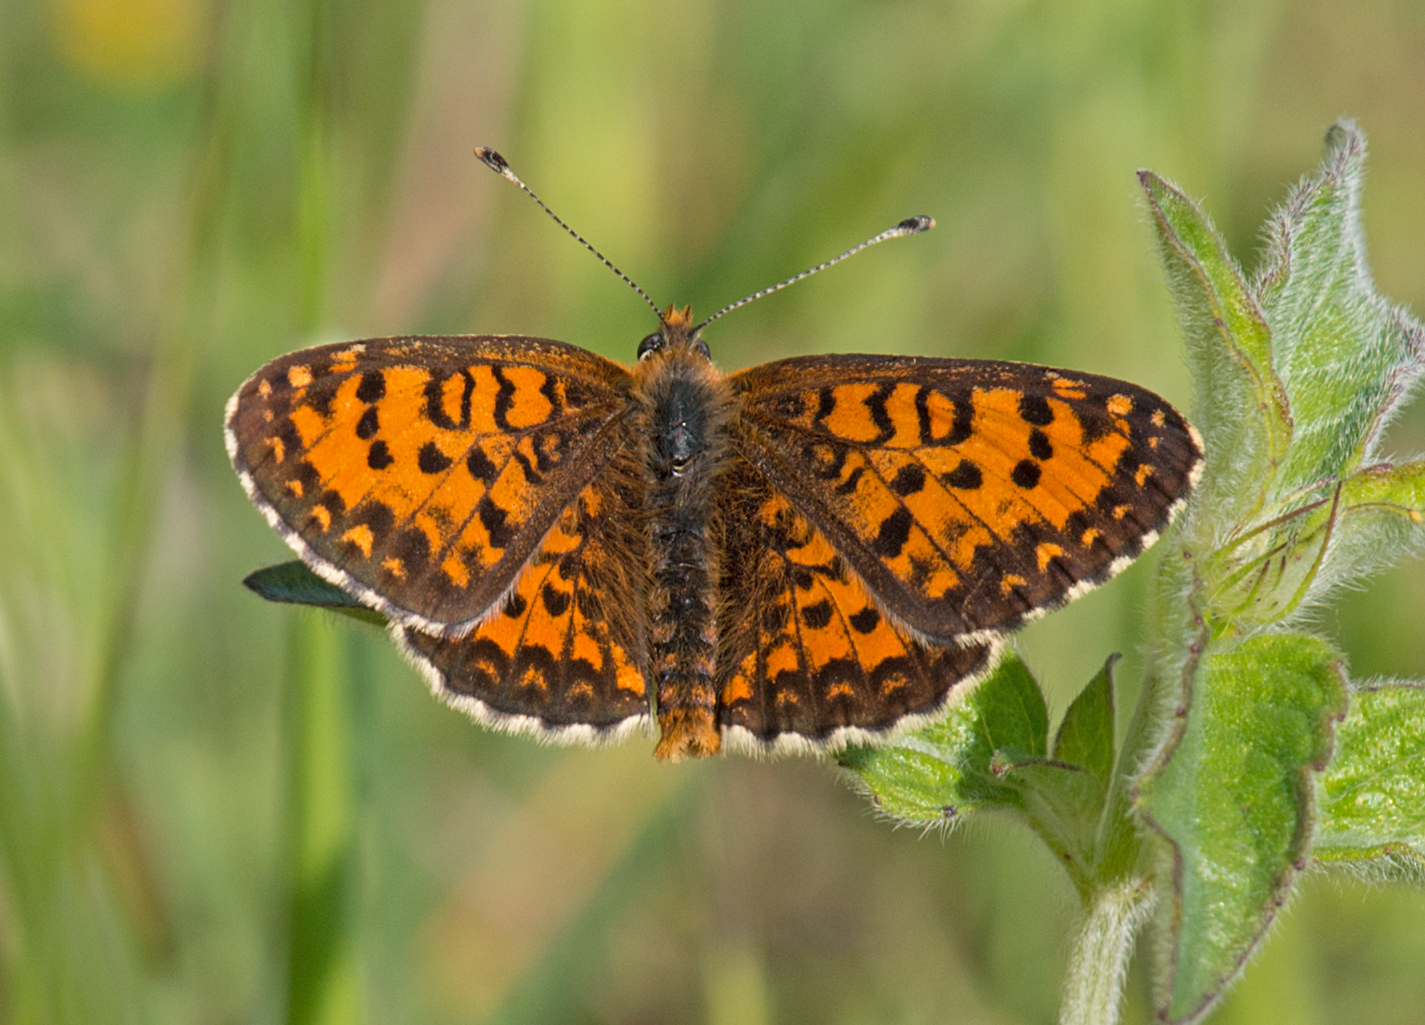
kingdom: Animalia
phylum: Arthropoda
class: Insecta
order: Lepidoptera
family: Nymphalidae
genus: Melitaea
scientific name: Melitaea trivia
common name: Lesser spotted fritillary
